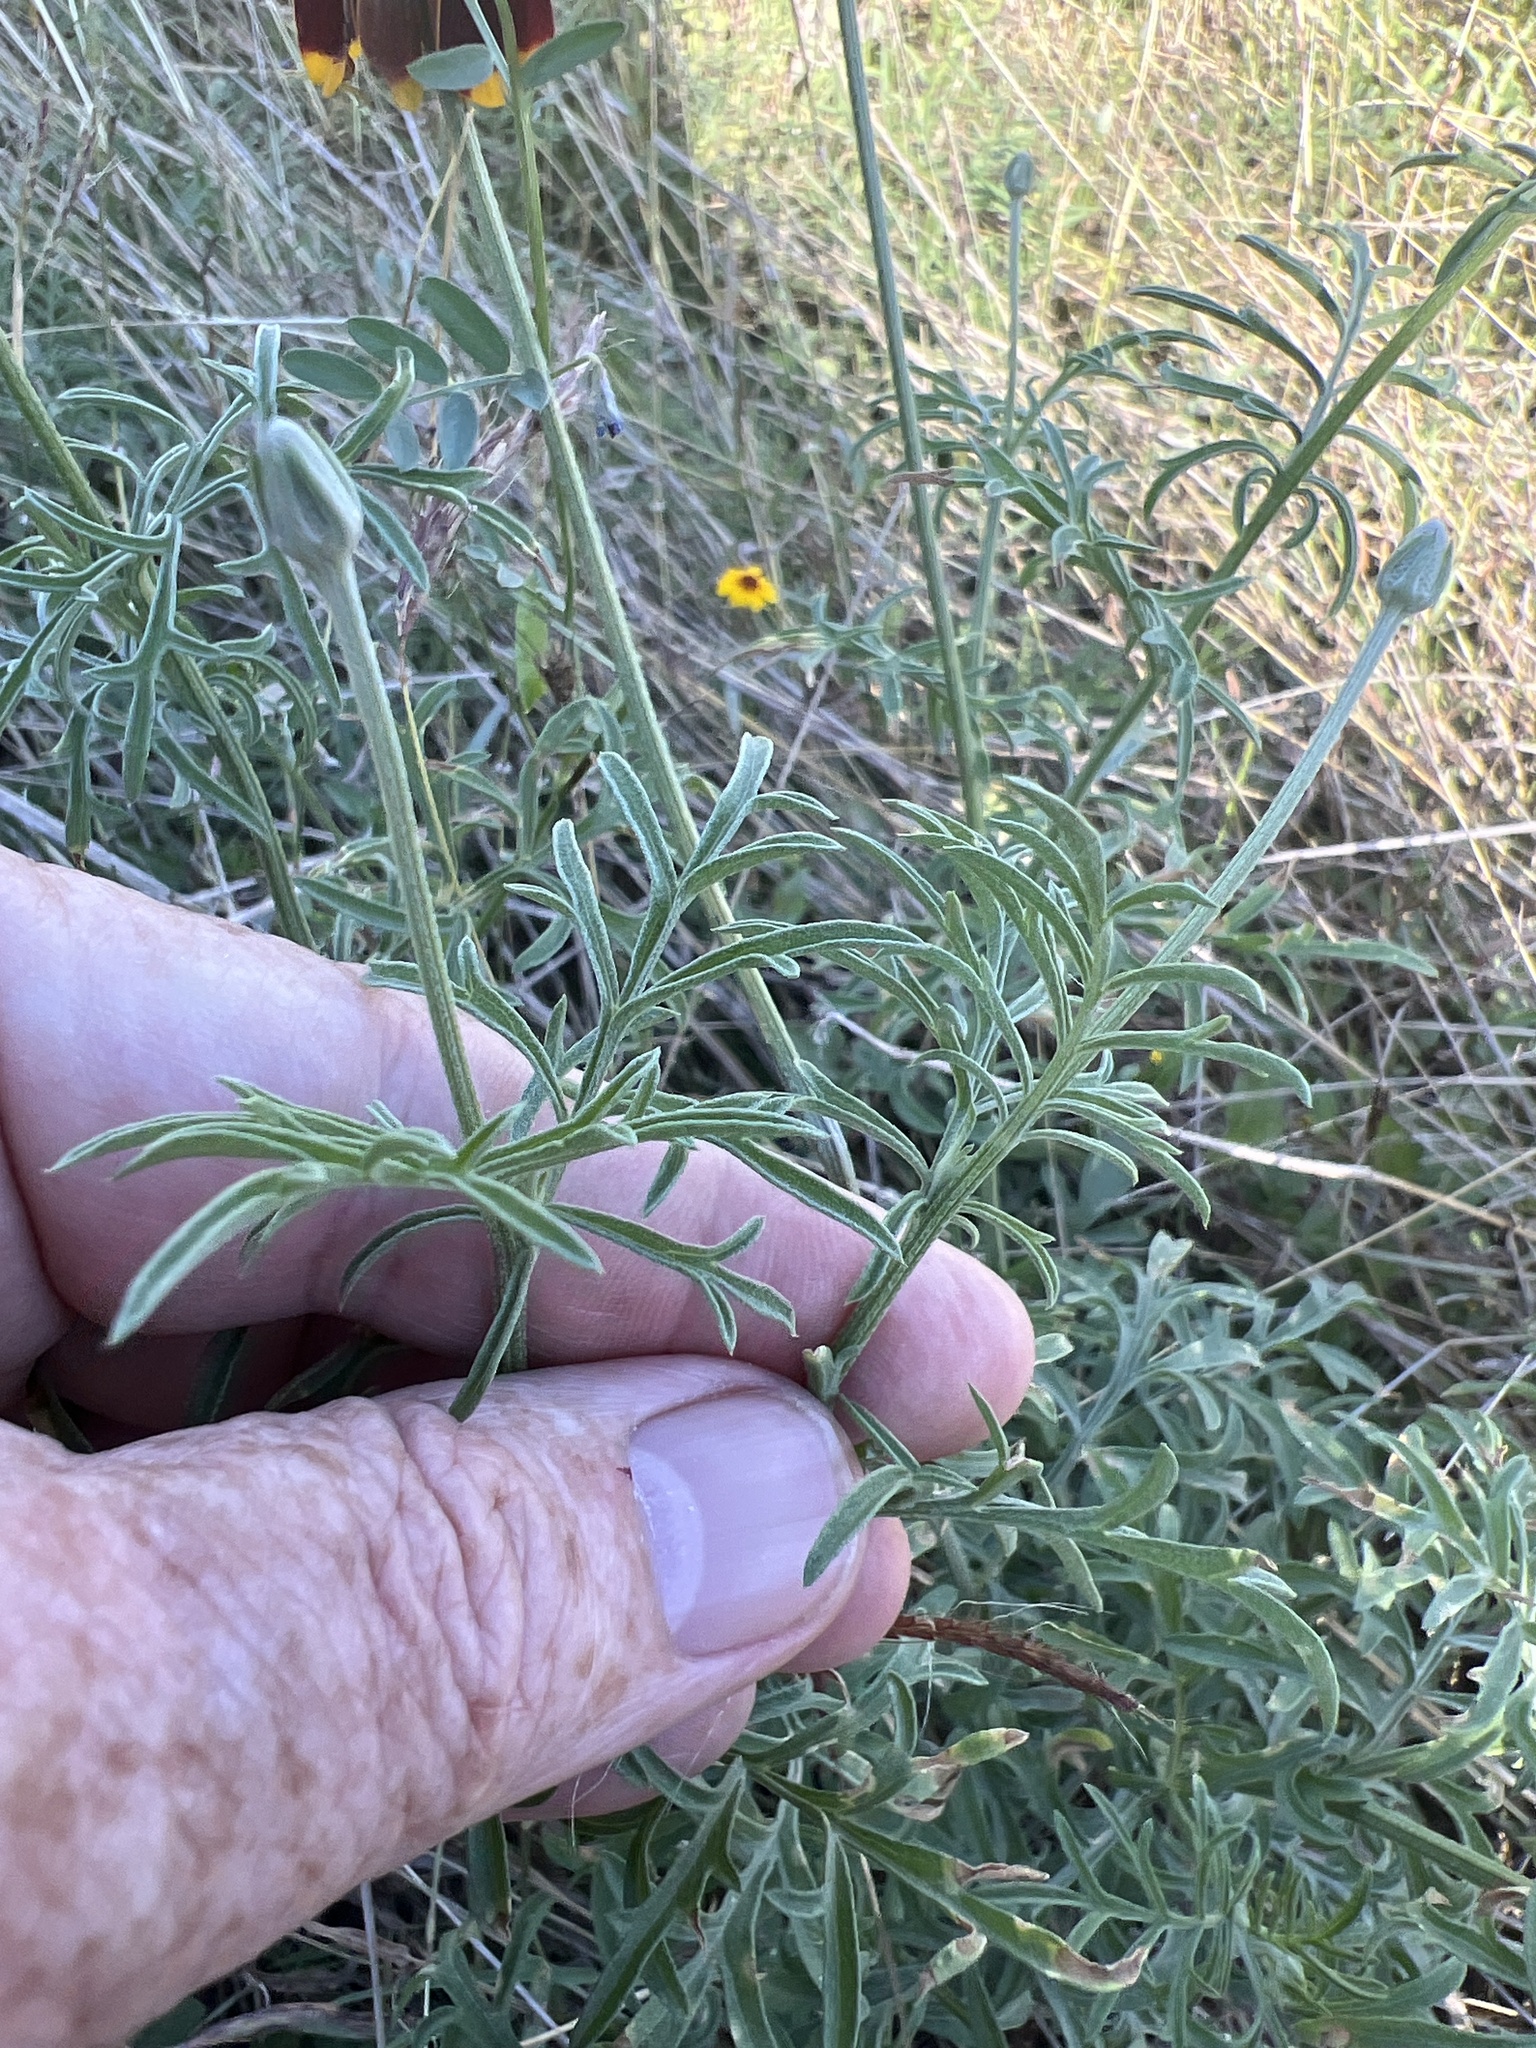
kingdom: Plantae
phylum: Tracheophyta
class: Magnoliopsida
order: Asterales
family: Asteraceae
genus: Ratibida
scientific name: Ratibida columnifera
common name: Prairie coneflower
